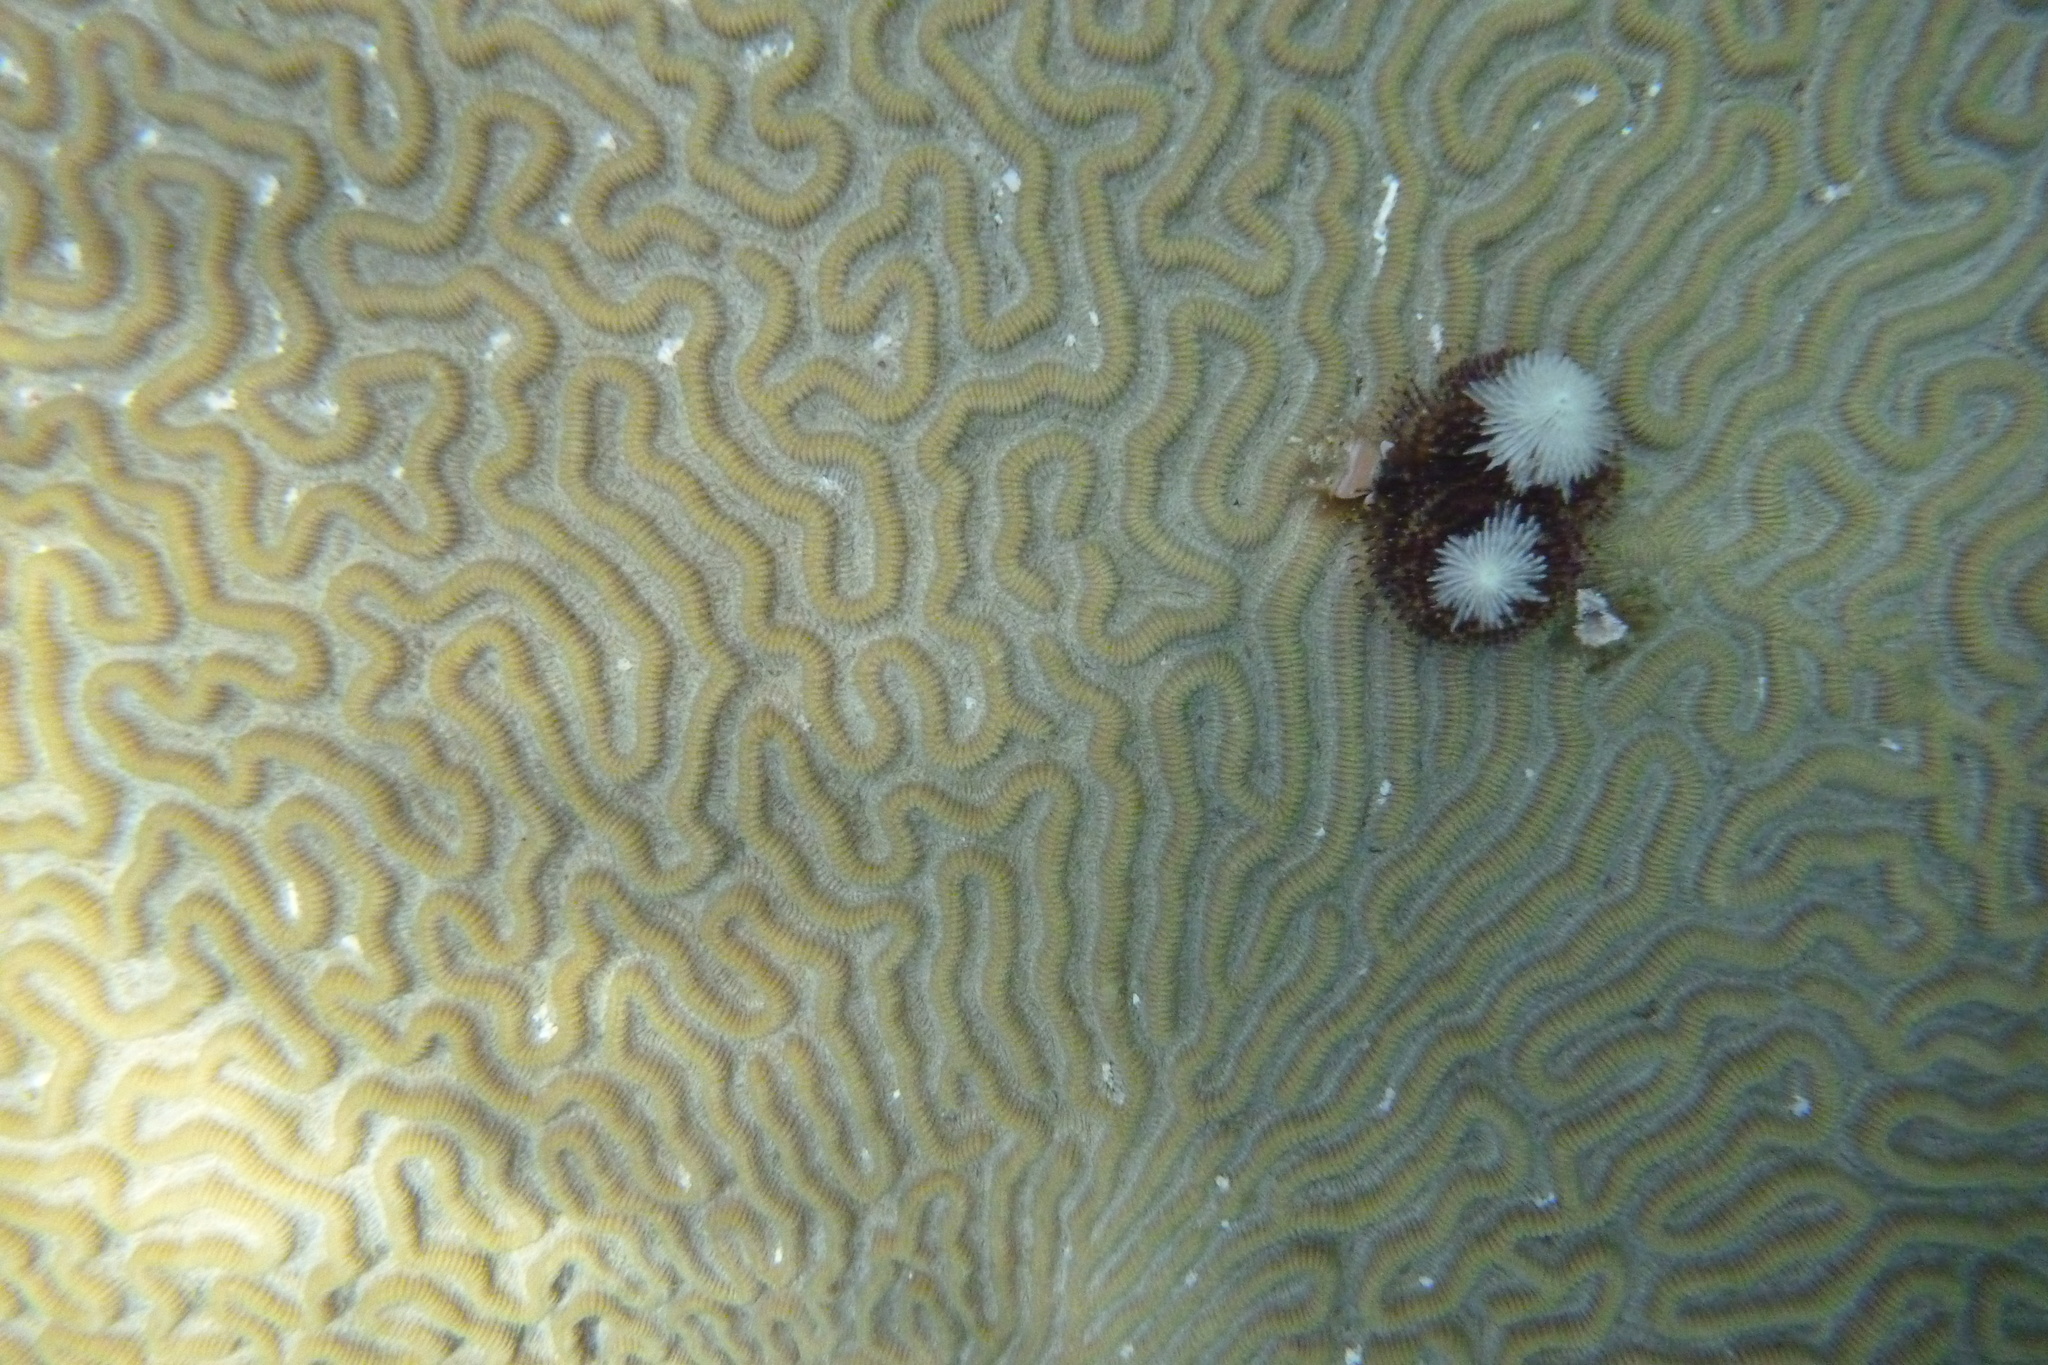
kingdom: Animalia
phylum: Cnidaria
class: Anthozoa
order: Scleractinia
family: Faviidae
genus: Pseudodiploria
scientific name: Pseudodiploria strigosa
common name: Symmetrical brain coral
